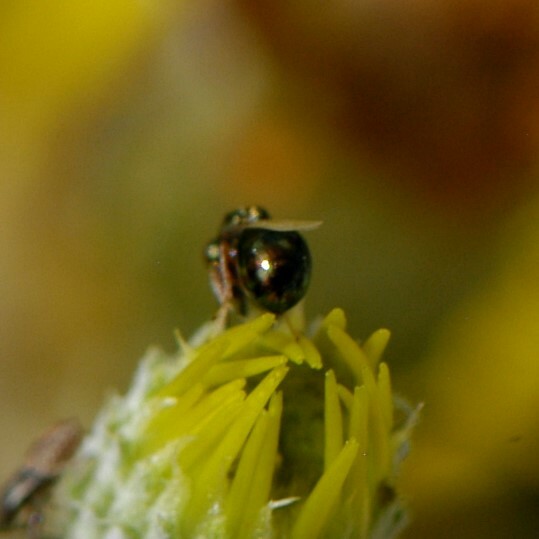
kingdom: Animalia
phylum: Arthropoda
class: Insecta
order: Hymenoptera
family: Eucharitidae
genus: Orasema
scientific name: Orasema
